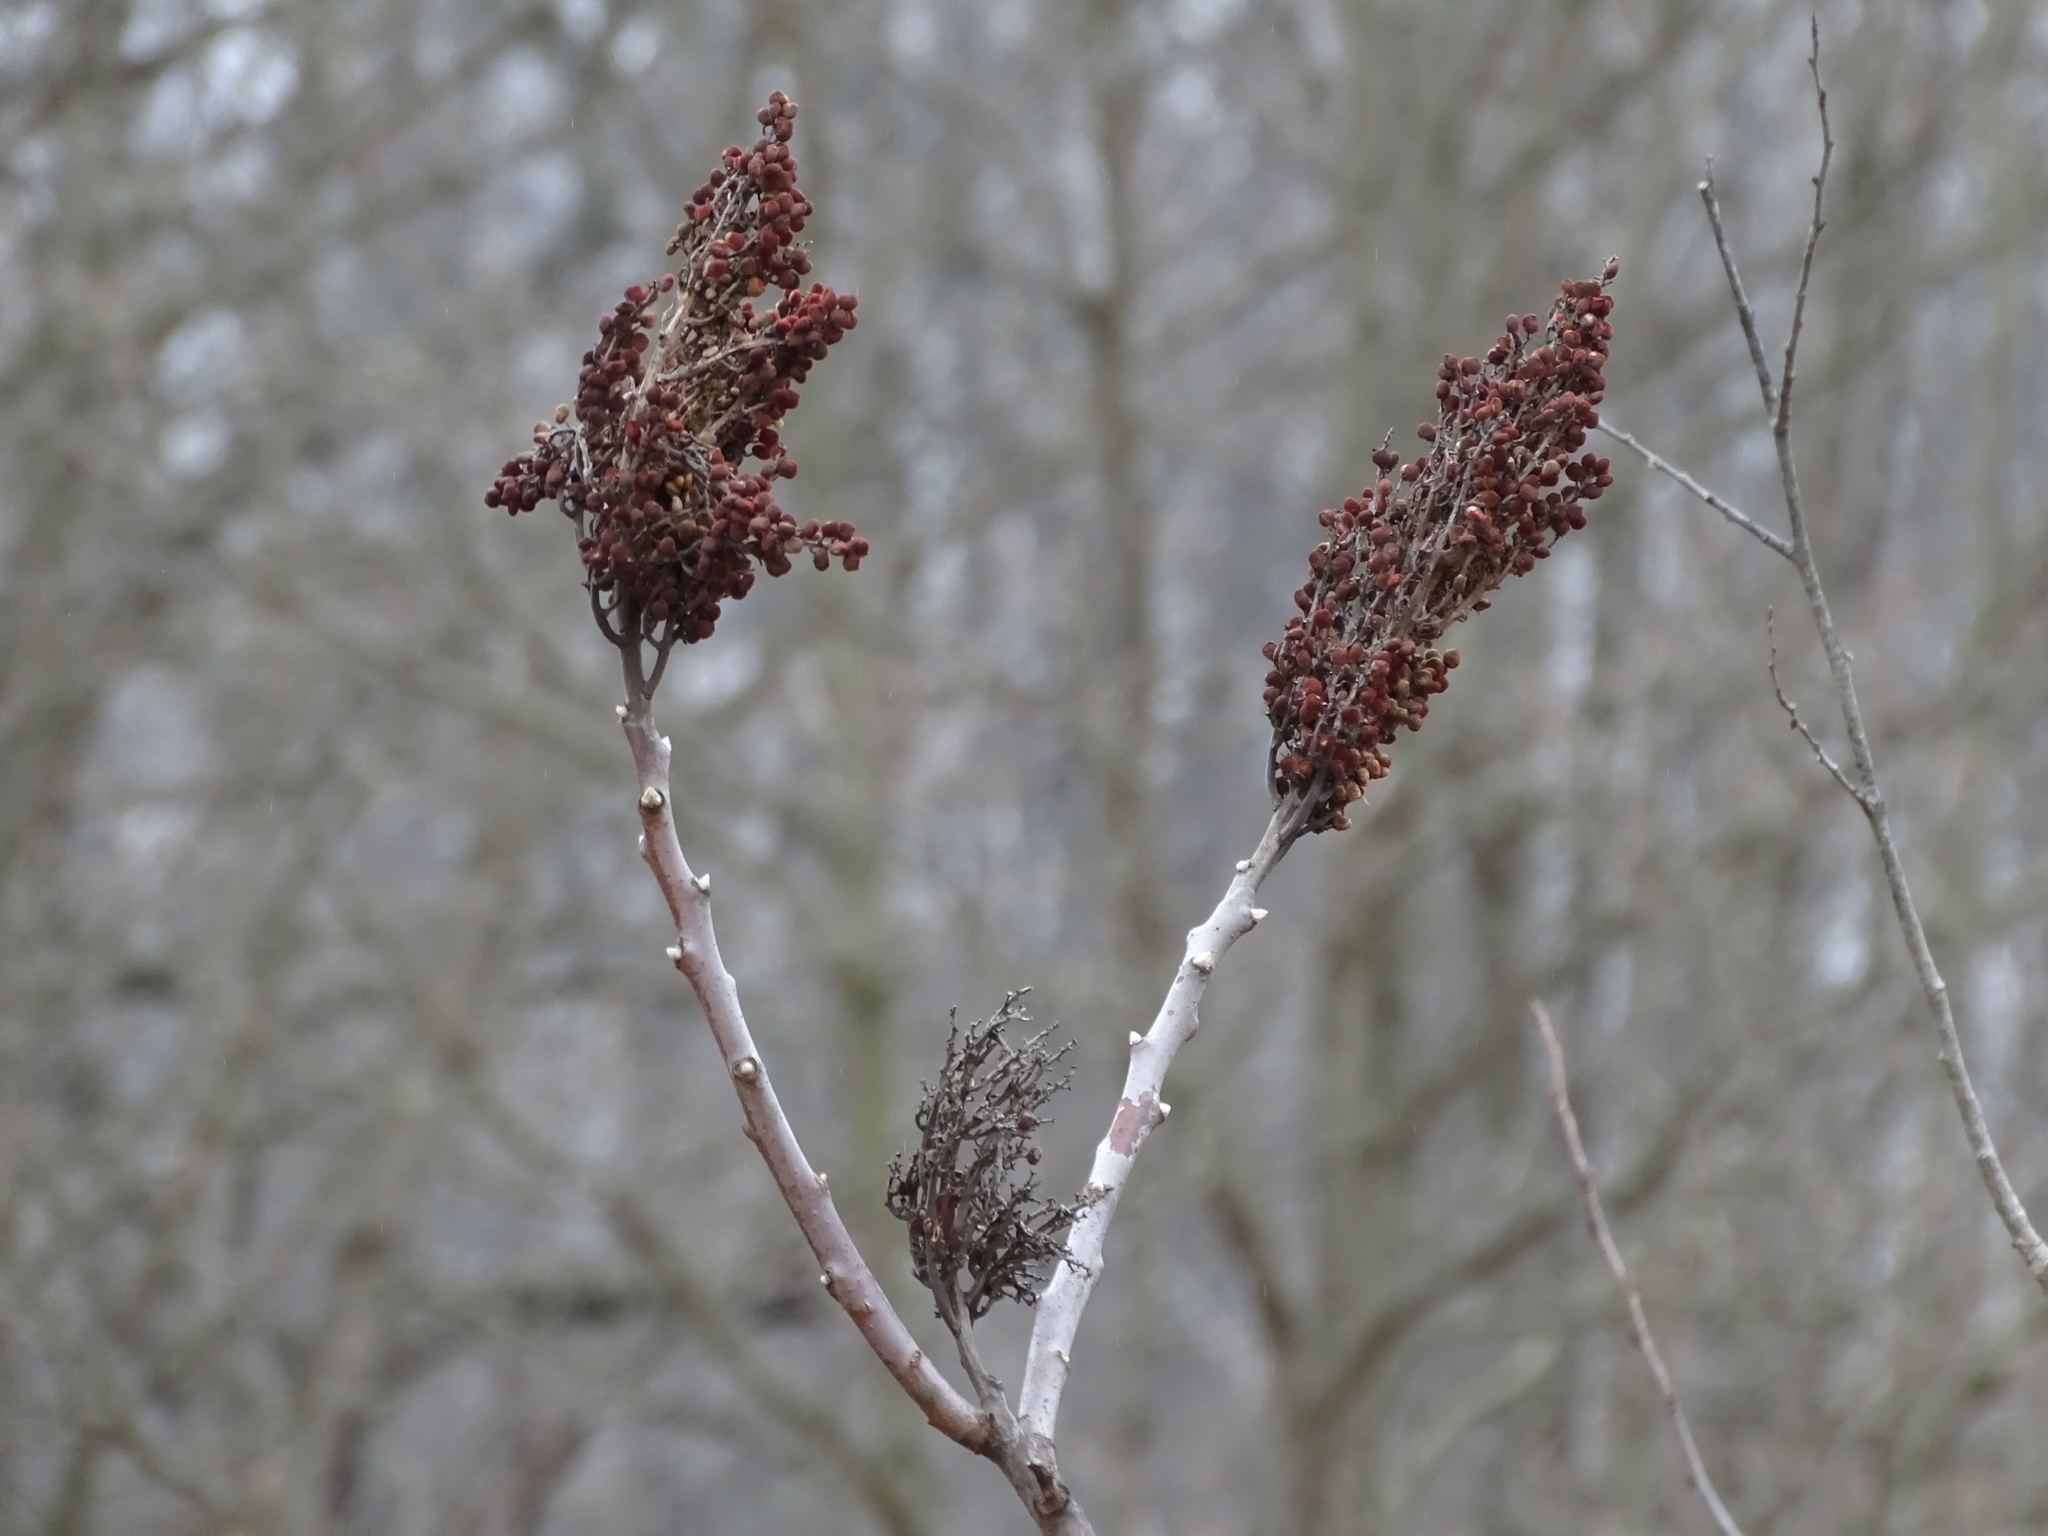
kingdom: Plantae
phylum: Tracheophyta
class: Magnoliopsida
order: Sapindales
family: Anacardiaceae
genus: Rhus
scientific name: Rhus glabra
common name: Scarlet sumac
